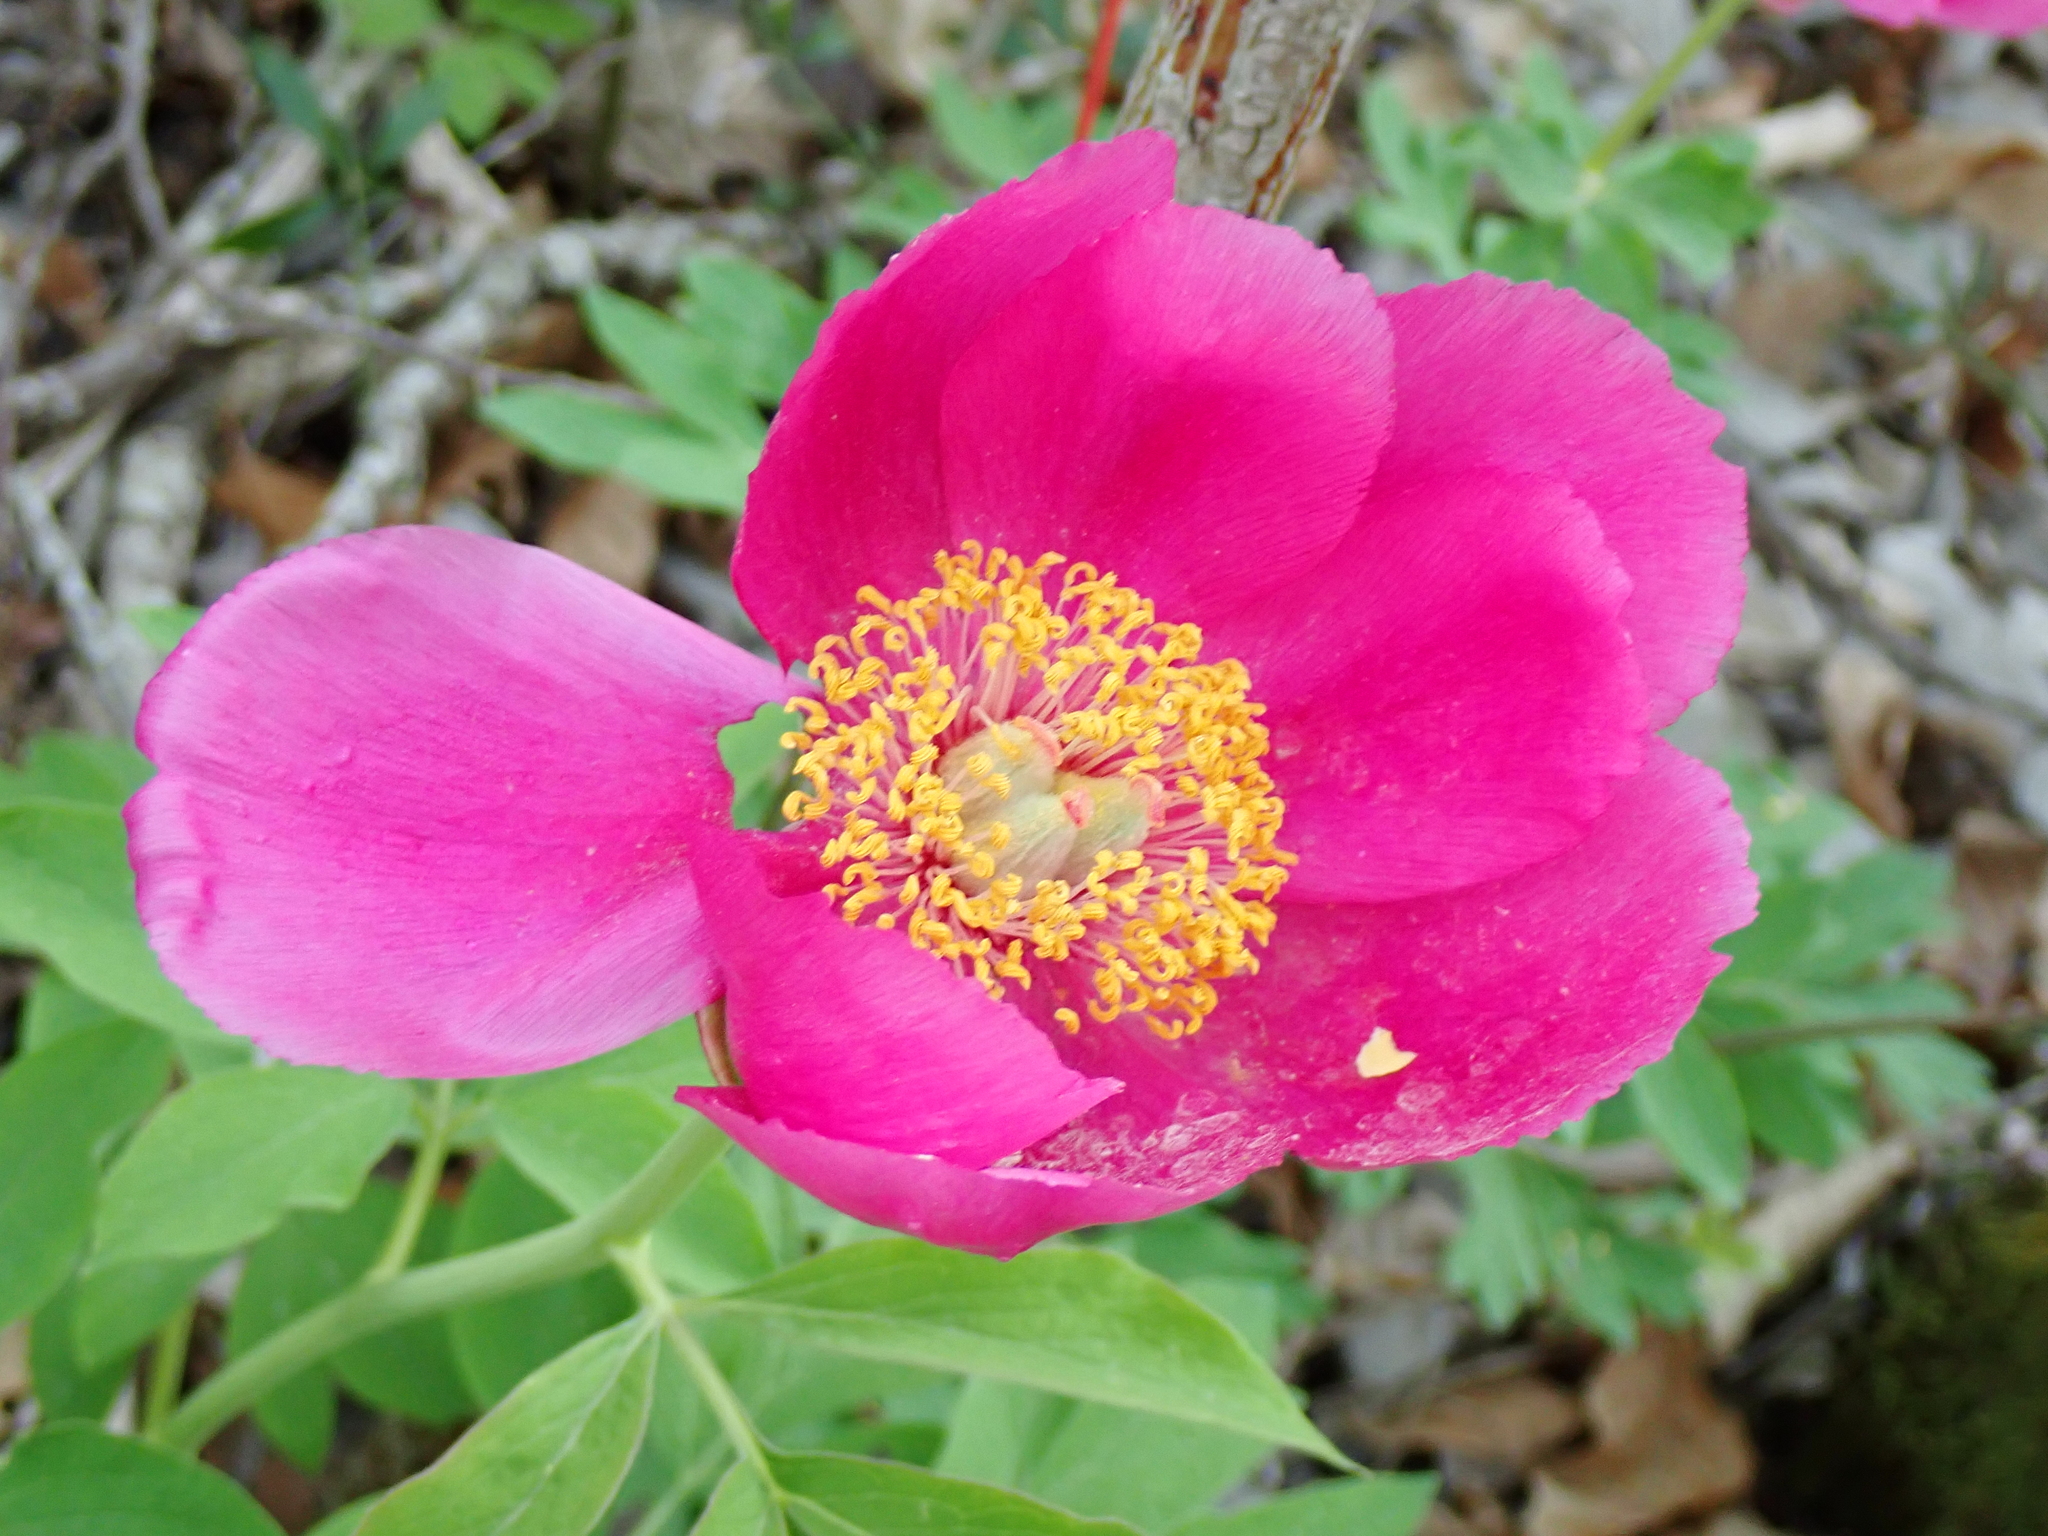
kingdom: Plantae
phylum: Tracheophyta
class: Magnoliopsida
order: Saxifragales
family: Paeoniaceae
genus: Paeonia
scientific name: Paeonia officinalis
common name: Common peony
